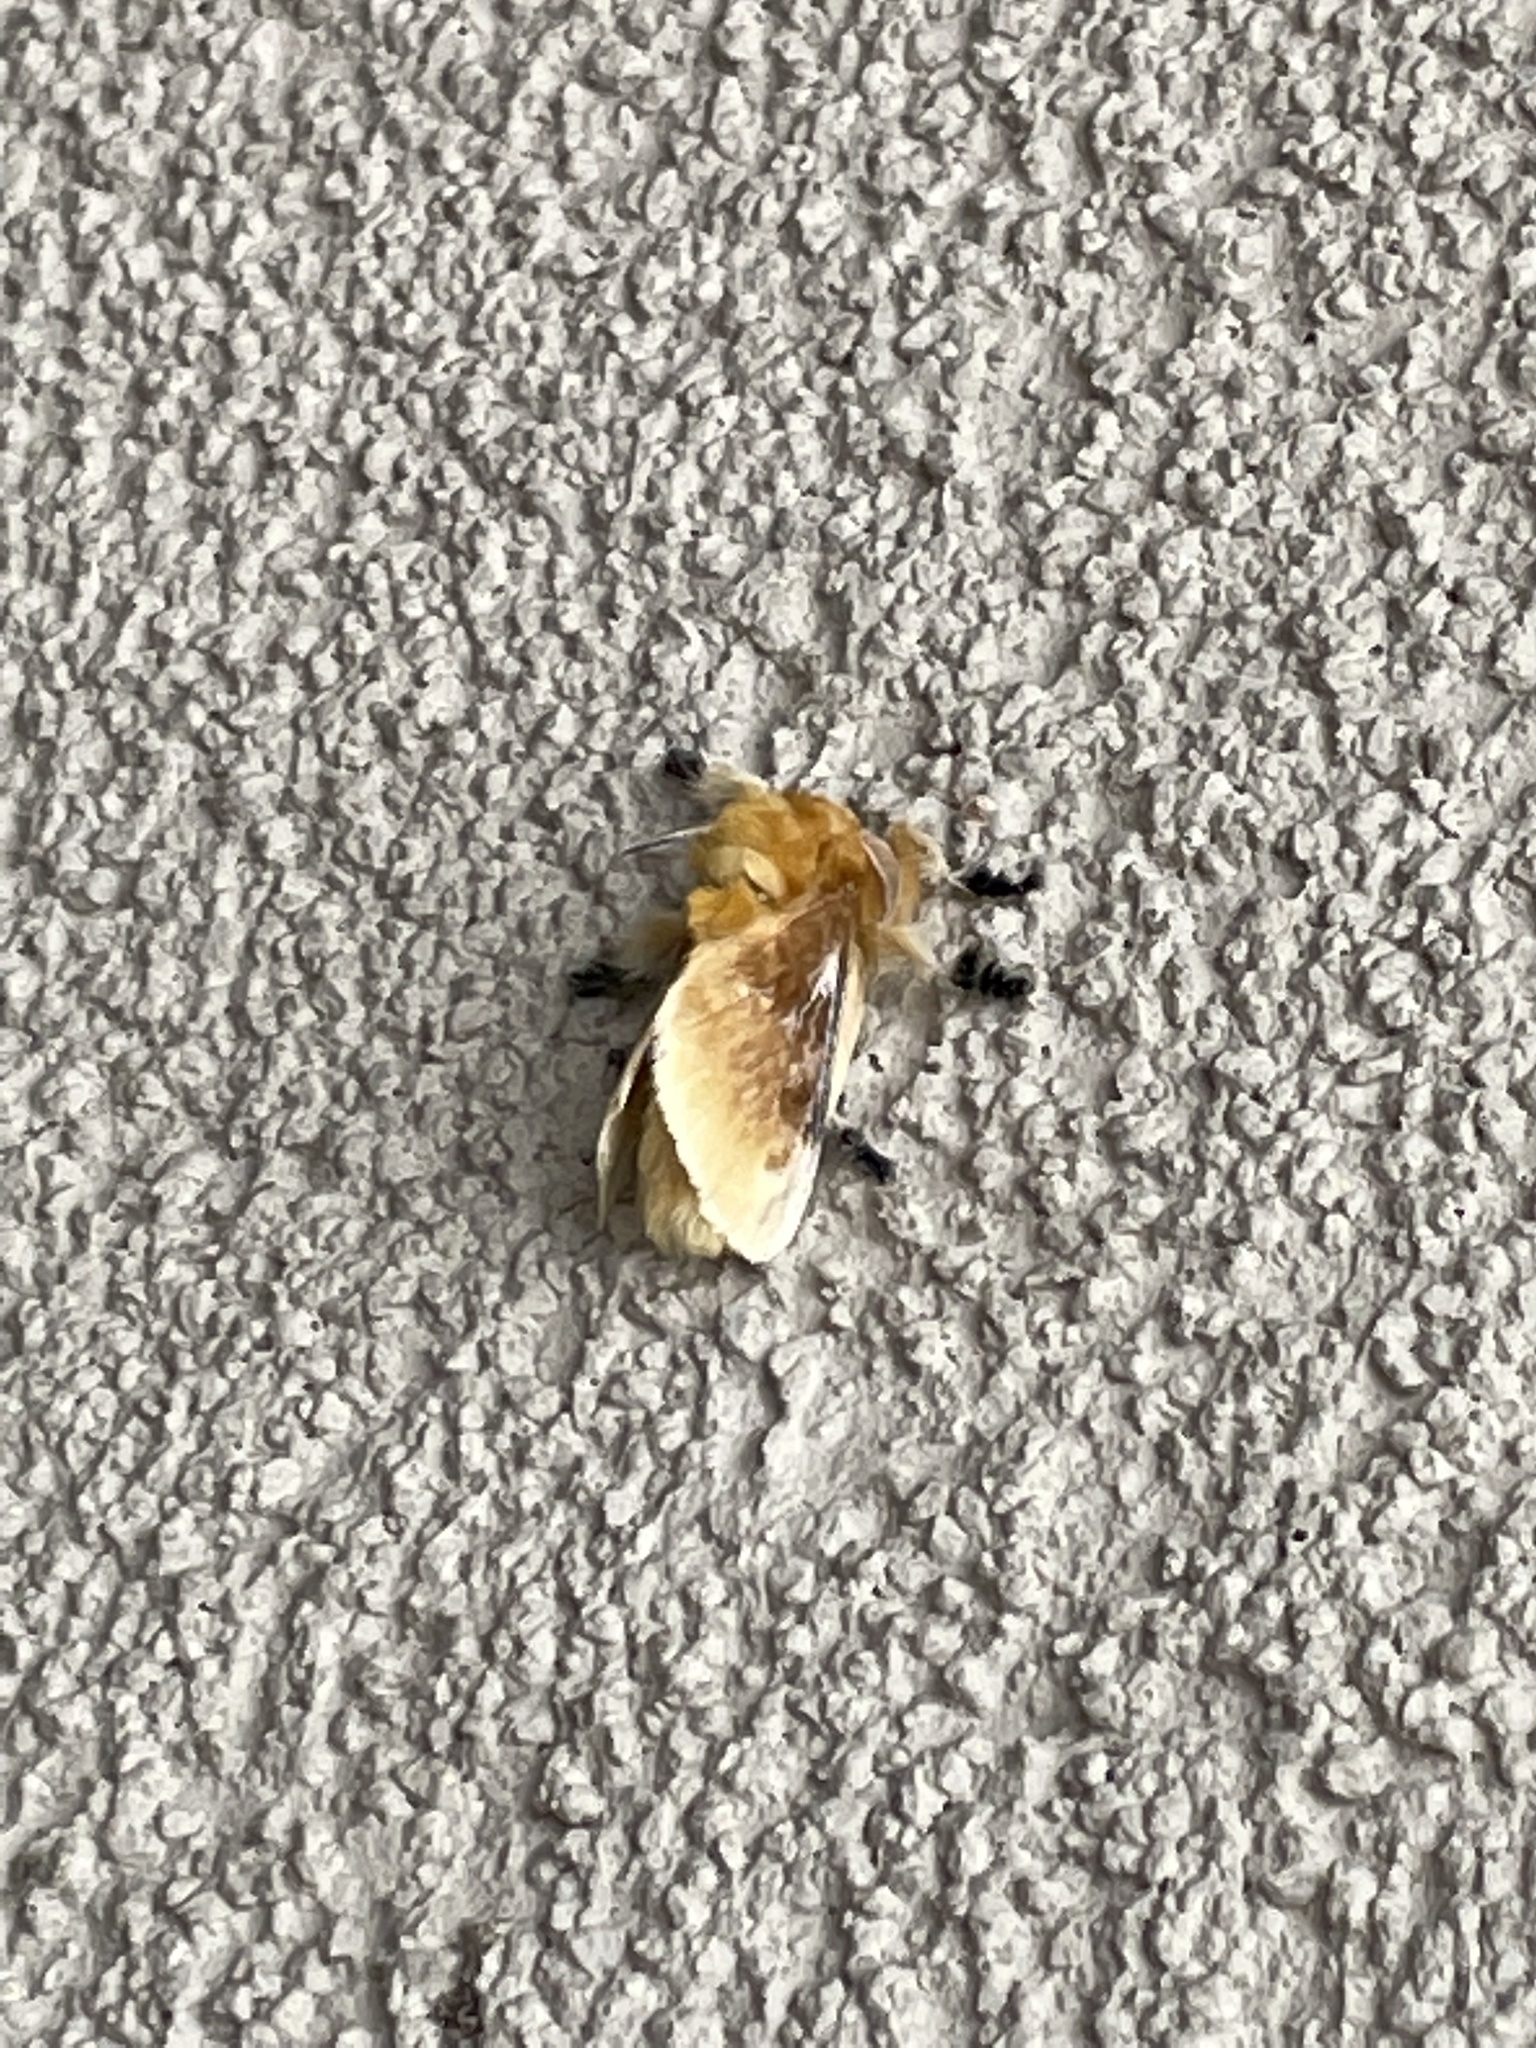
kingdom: Animalia
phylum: Arthropoda
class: Insecta
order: Lepidoptera
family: Megalopygidae
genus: Megalopyge
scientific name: Megalopyge opercularis
